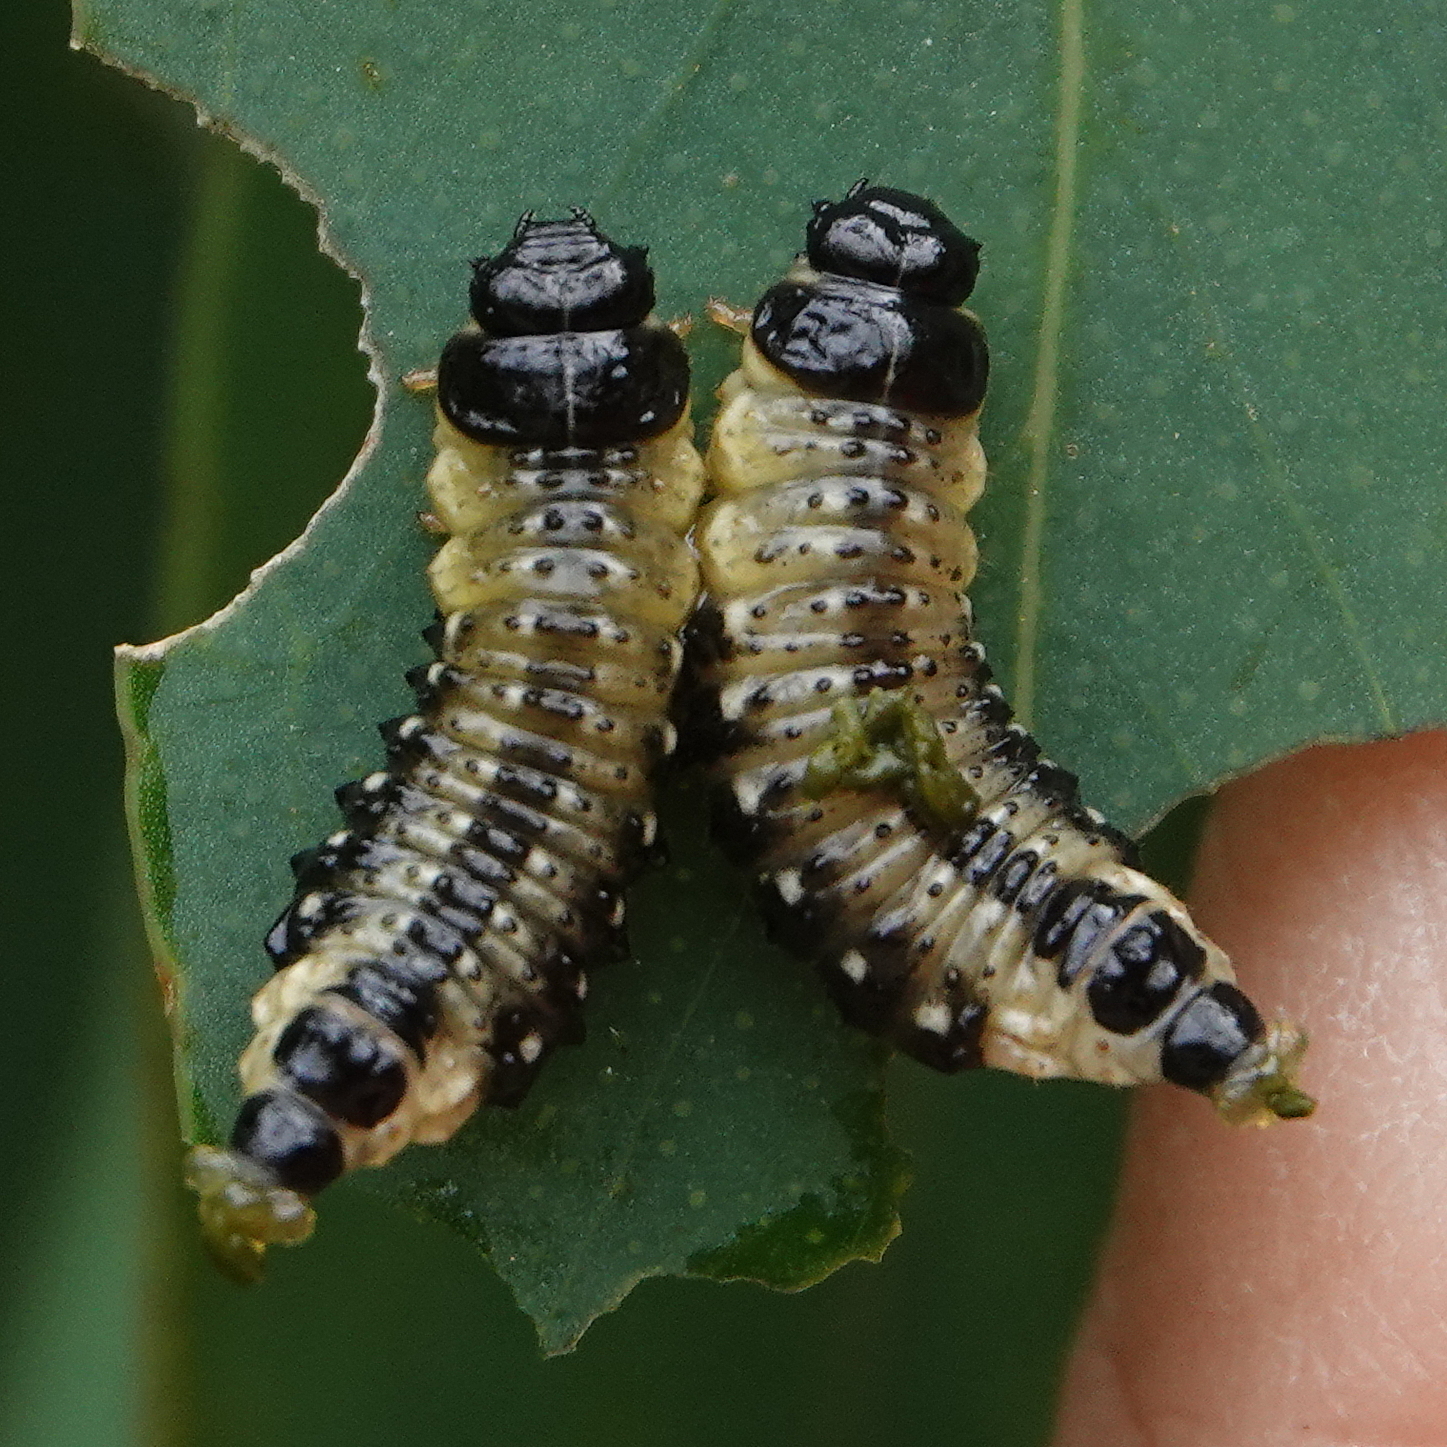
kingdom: Animalia
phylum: Arthropoda
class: Insecta
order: Coleoptera
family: Chrysomelidae
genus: Paropsis
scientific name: Paropsis
